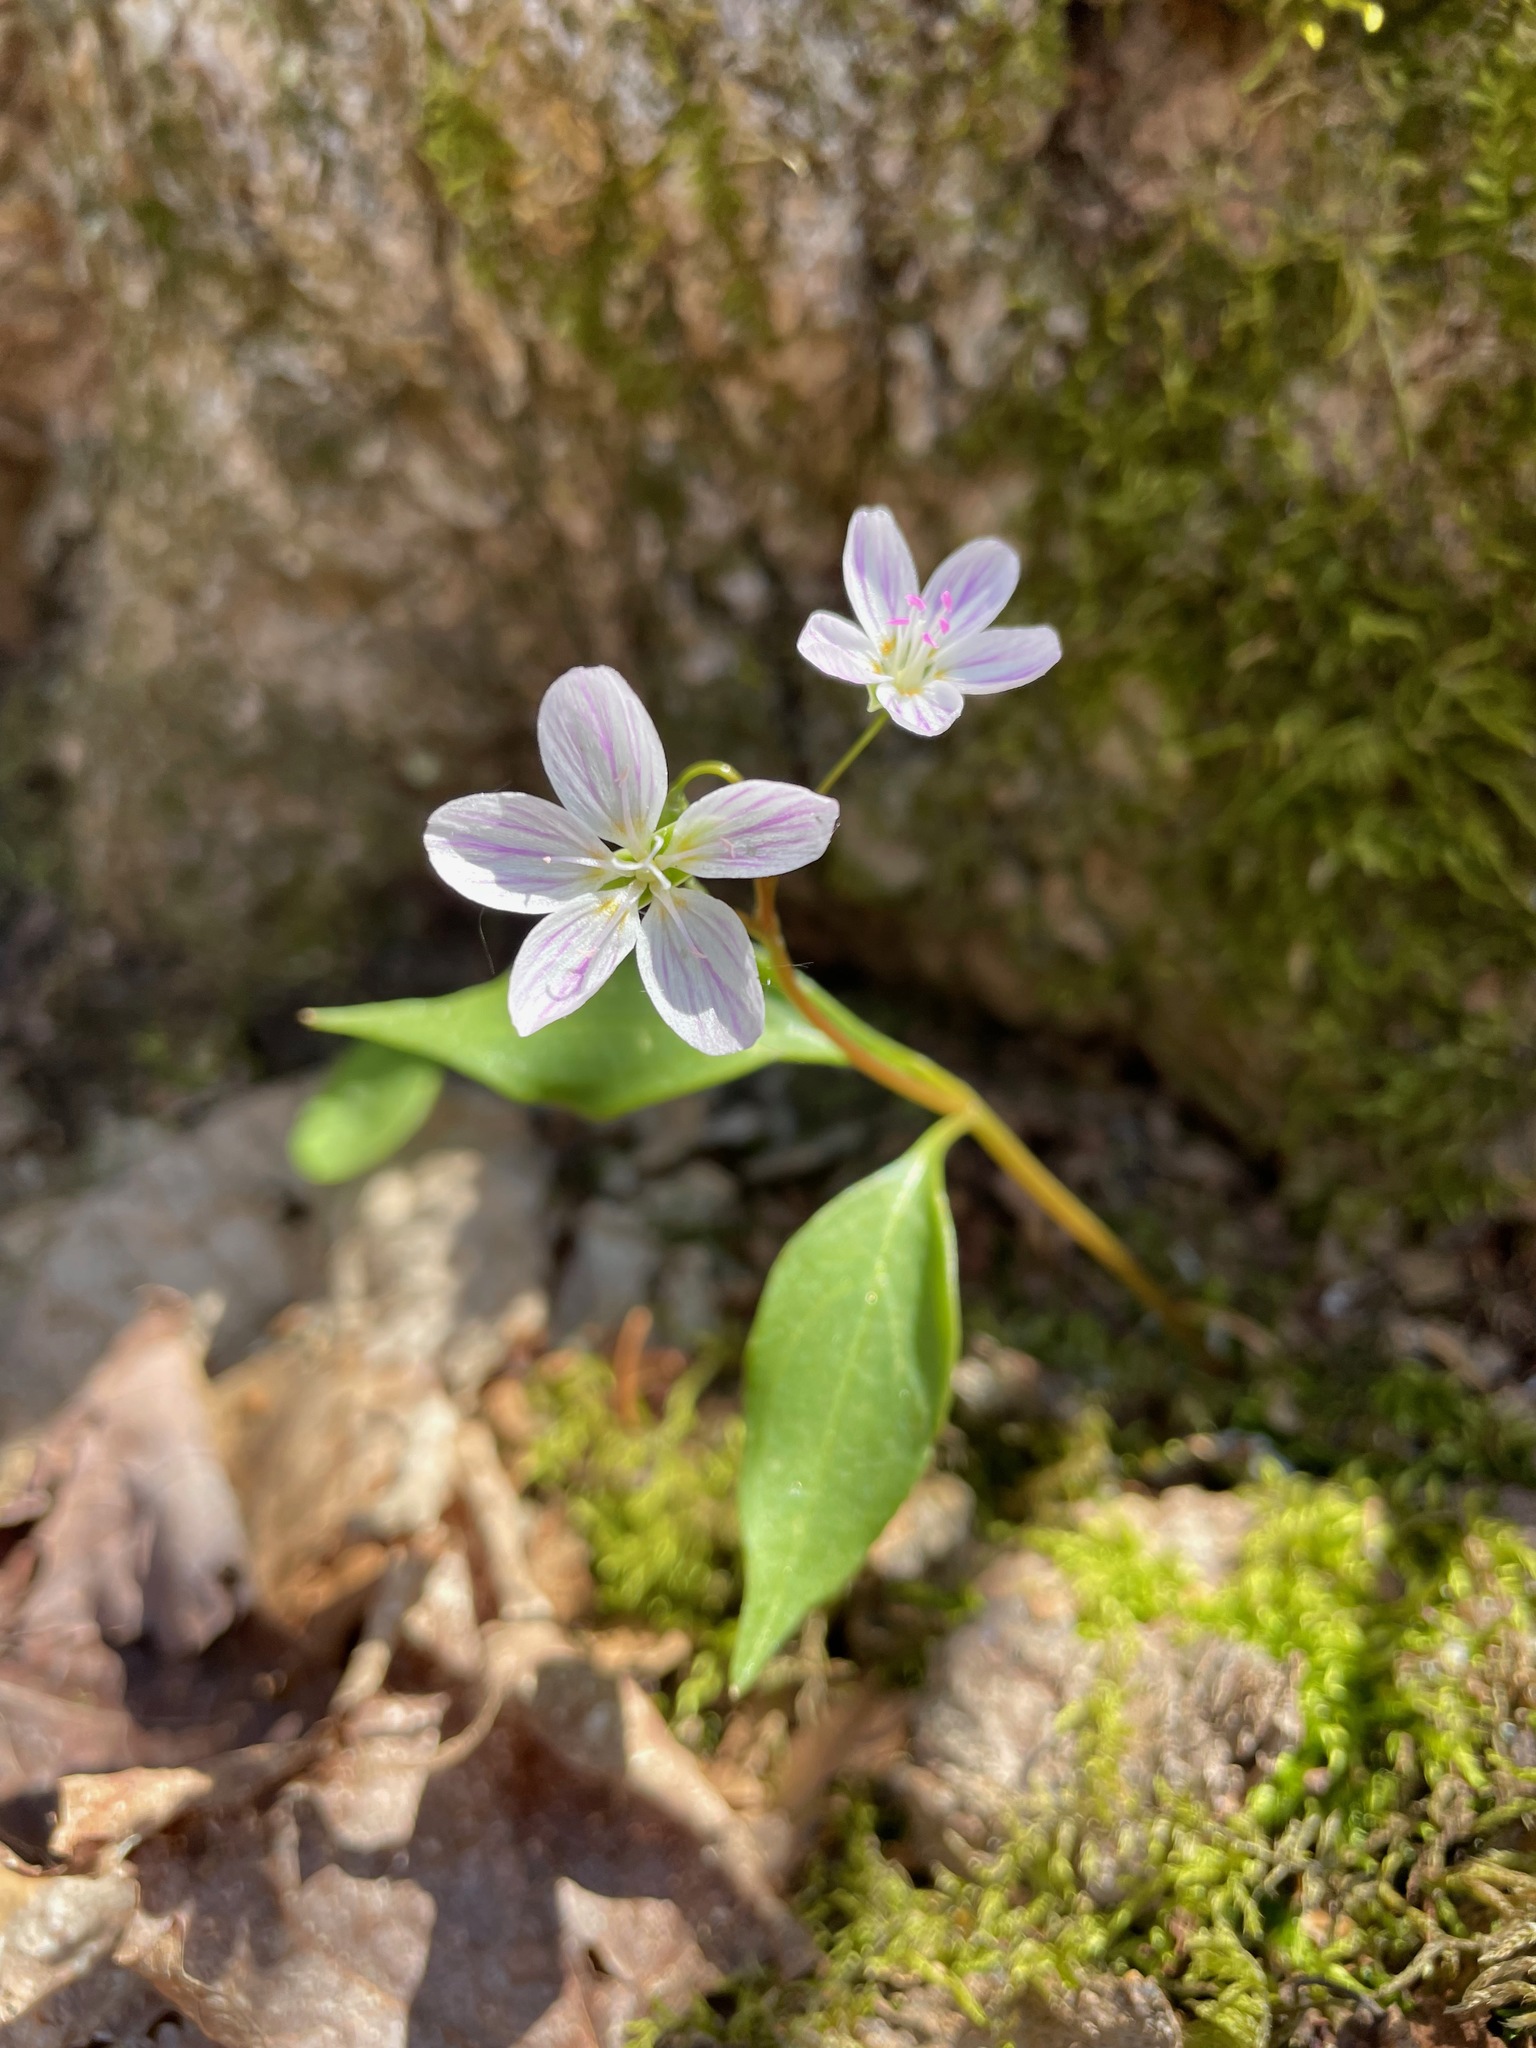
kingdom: Plantae
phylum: Tracheophyta
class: Magnoliopsida
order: Caryophyllales
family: Montiaceae
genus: Claytonia
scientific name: Claytonia caroliniana
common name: Carolina spring beauty
